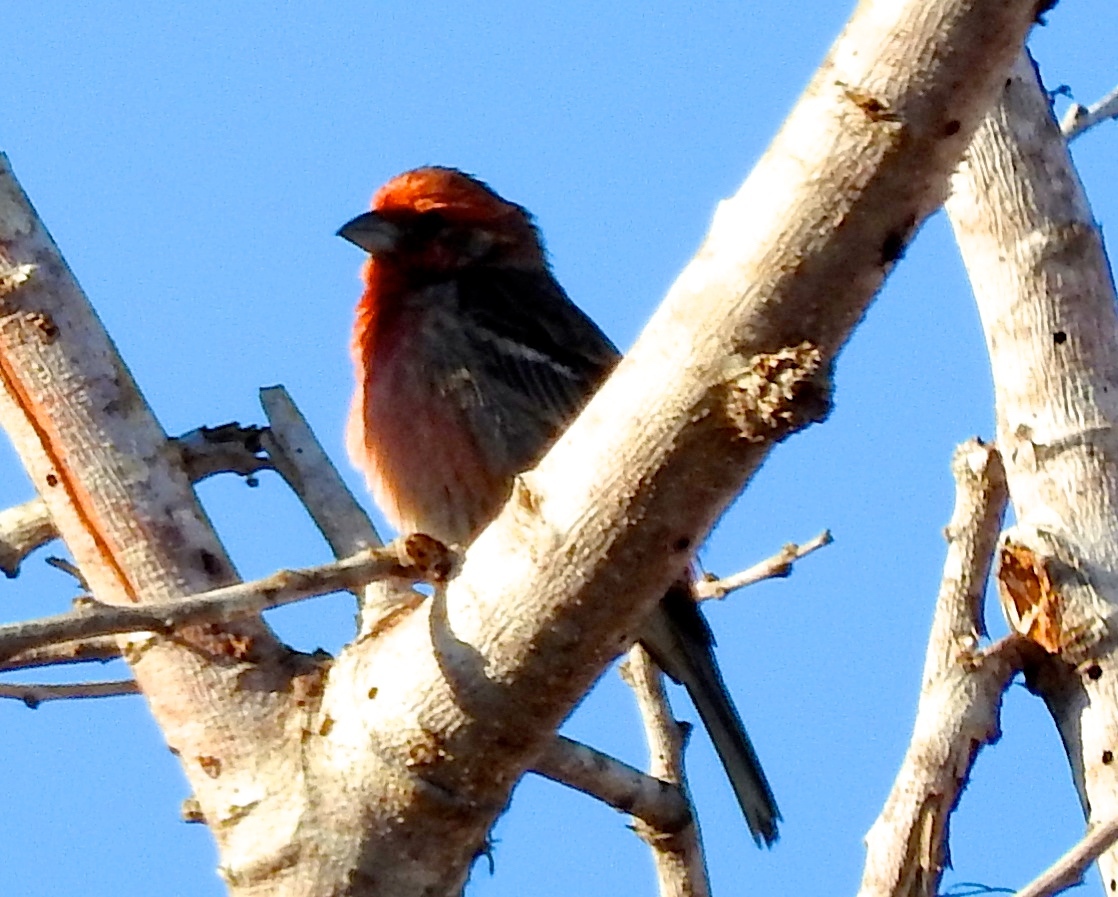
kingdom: Animalia
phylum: Chordata
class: Aves
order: Passeriformes
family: Fringillidae
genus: Haemorhous
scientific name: Haemorhous mexicanus
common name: House finch
